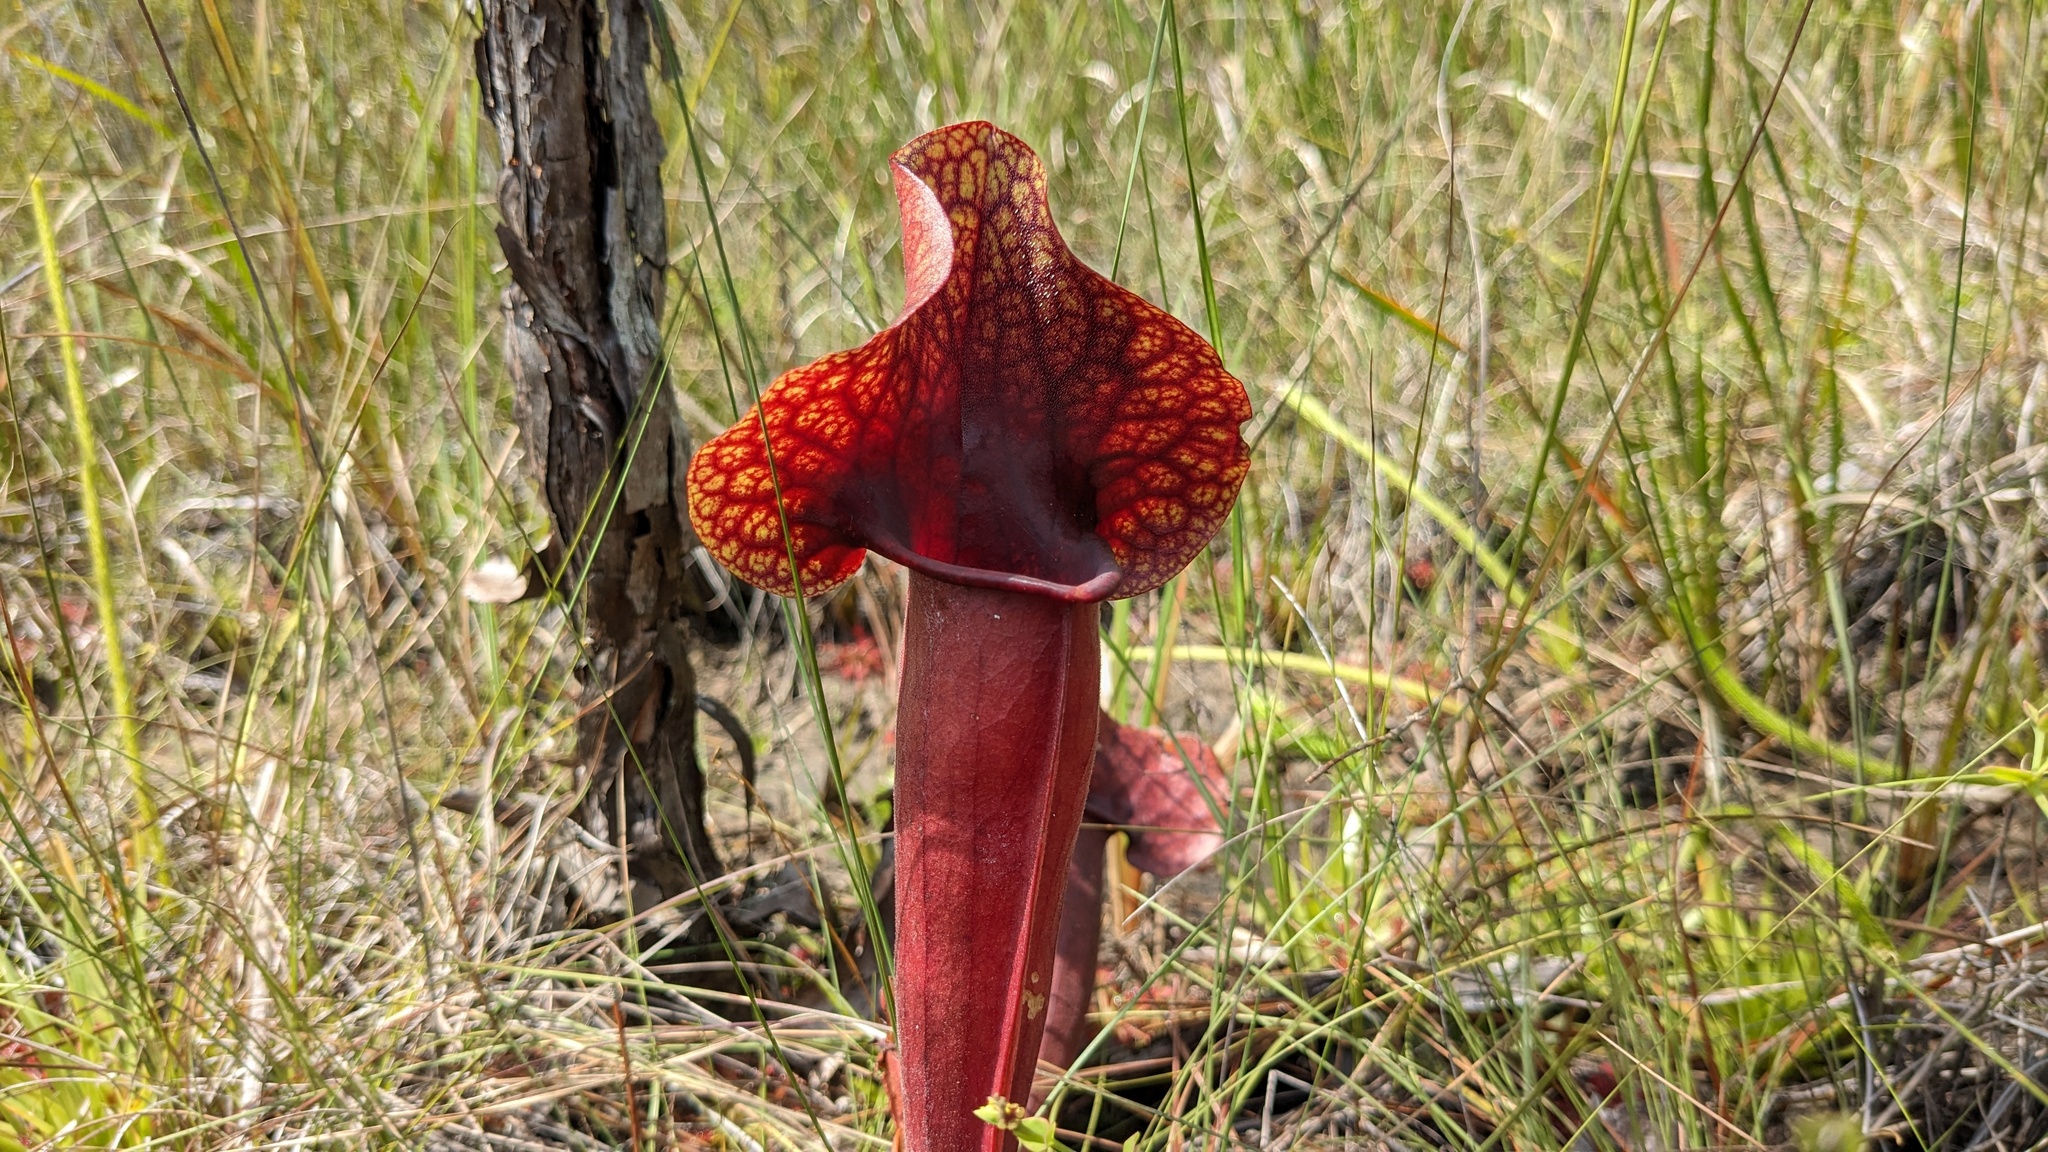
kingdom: Plantae
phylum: Tracheophyta
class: Magnoliopsida
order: Ericales
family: Sarraceniaceae
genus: Sarracenia
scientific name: Sarracenia naczii
